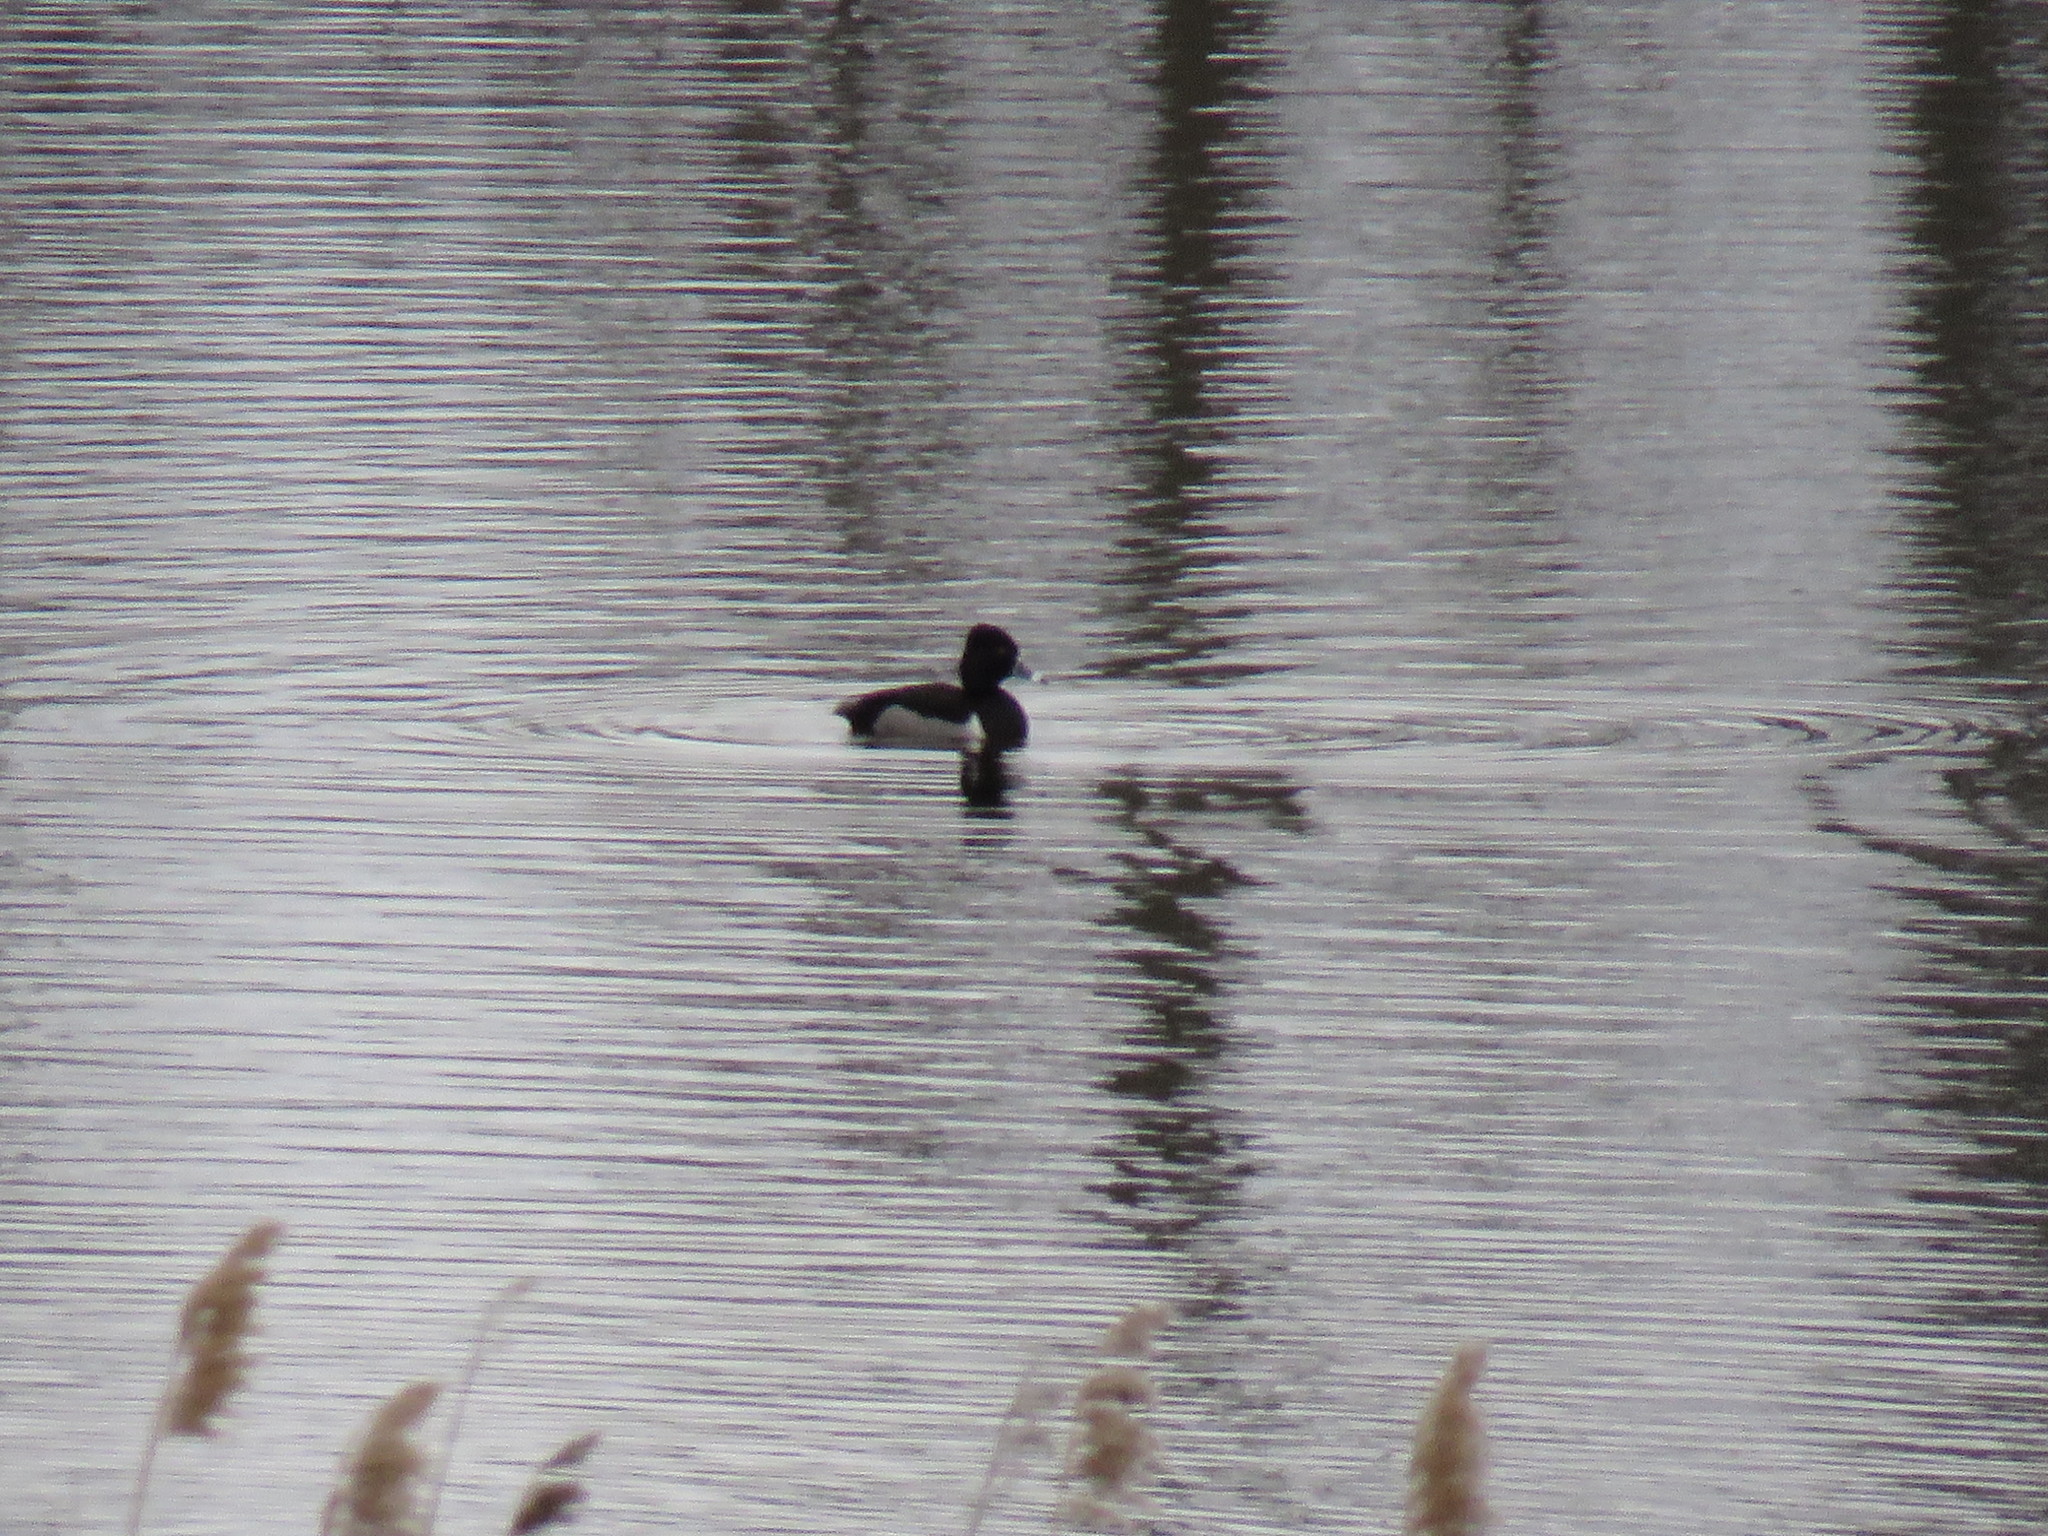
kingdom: Animalia
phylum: Chordata
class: Aves
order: Anseriformes
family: Anatidae
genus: Aythya
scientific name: Aythya collaris
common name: Ring-necked duck
